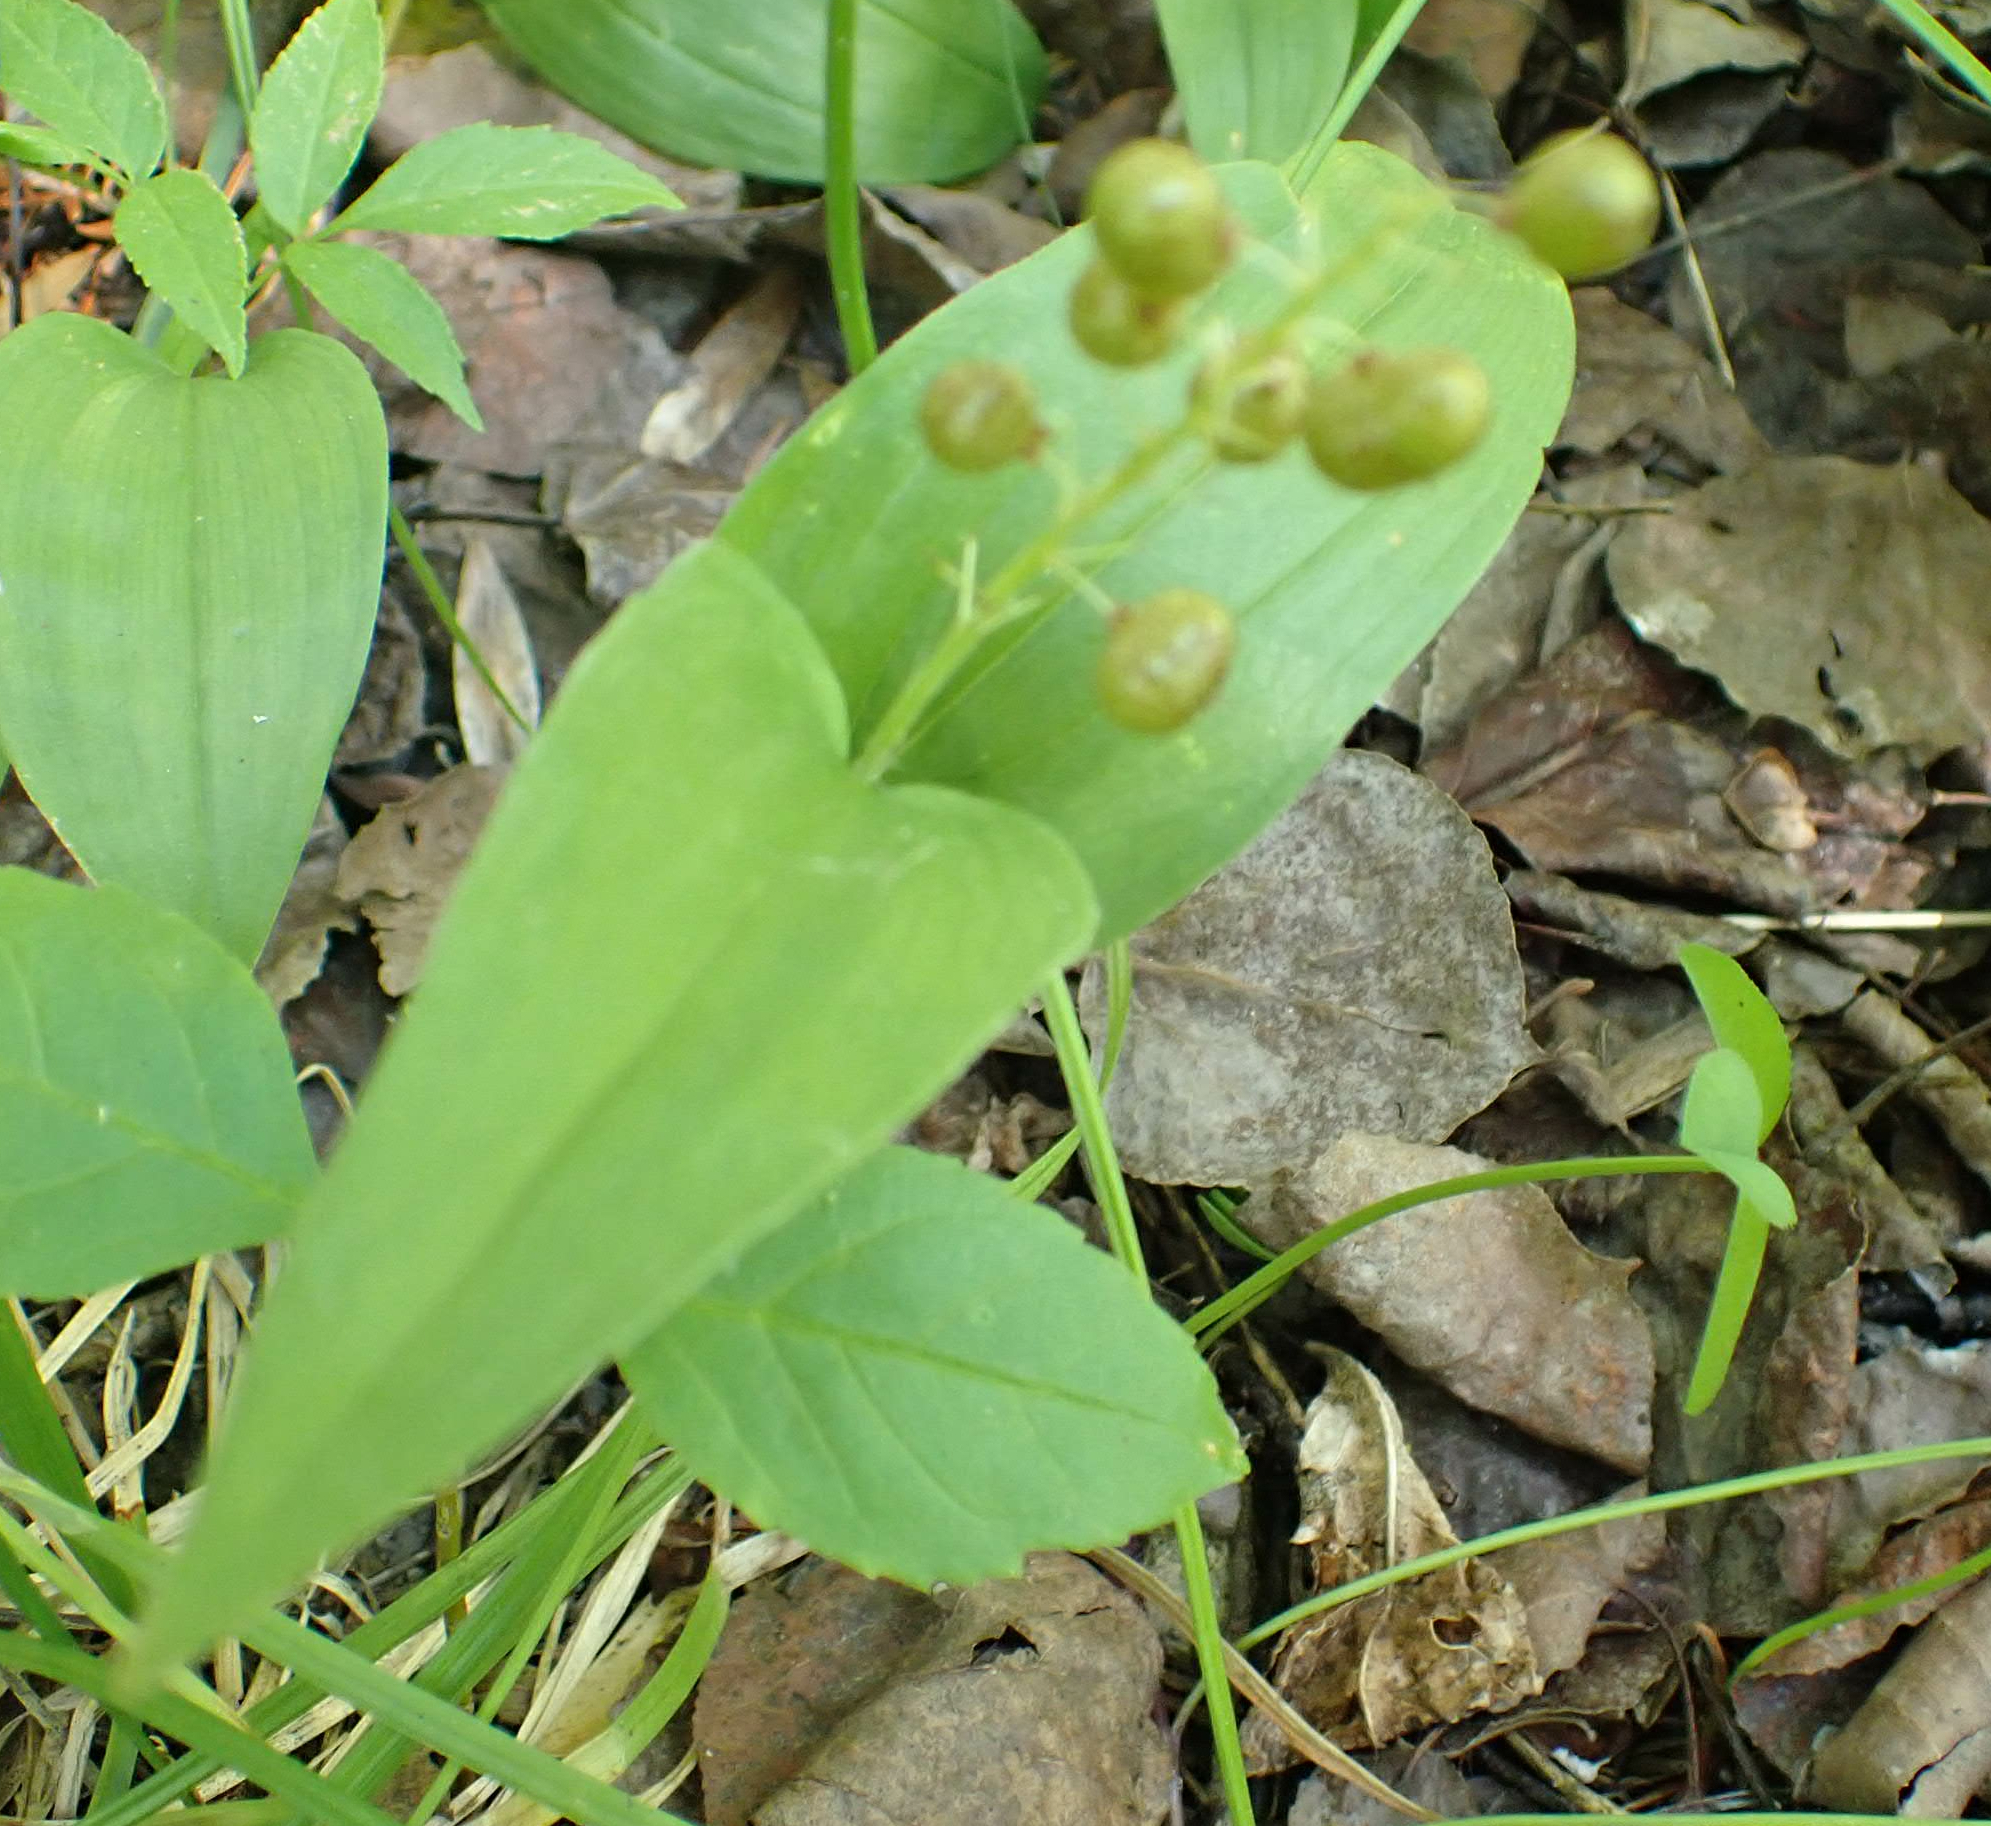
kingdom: Plantae
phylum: Tracheophyta
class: Liliopsida
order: Asparagales
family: Asparagaceae
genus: Maianthemum
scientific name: Maianthemum canadense
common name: False lily-of-the-valley
